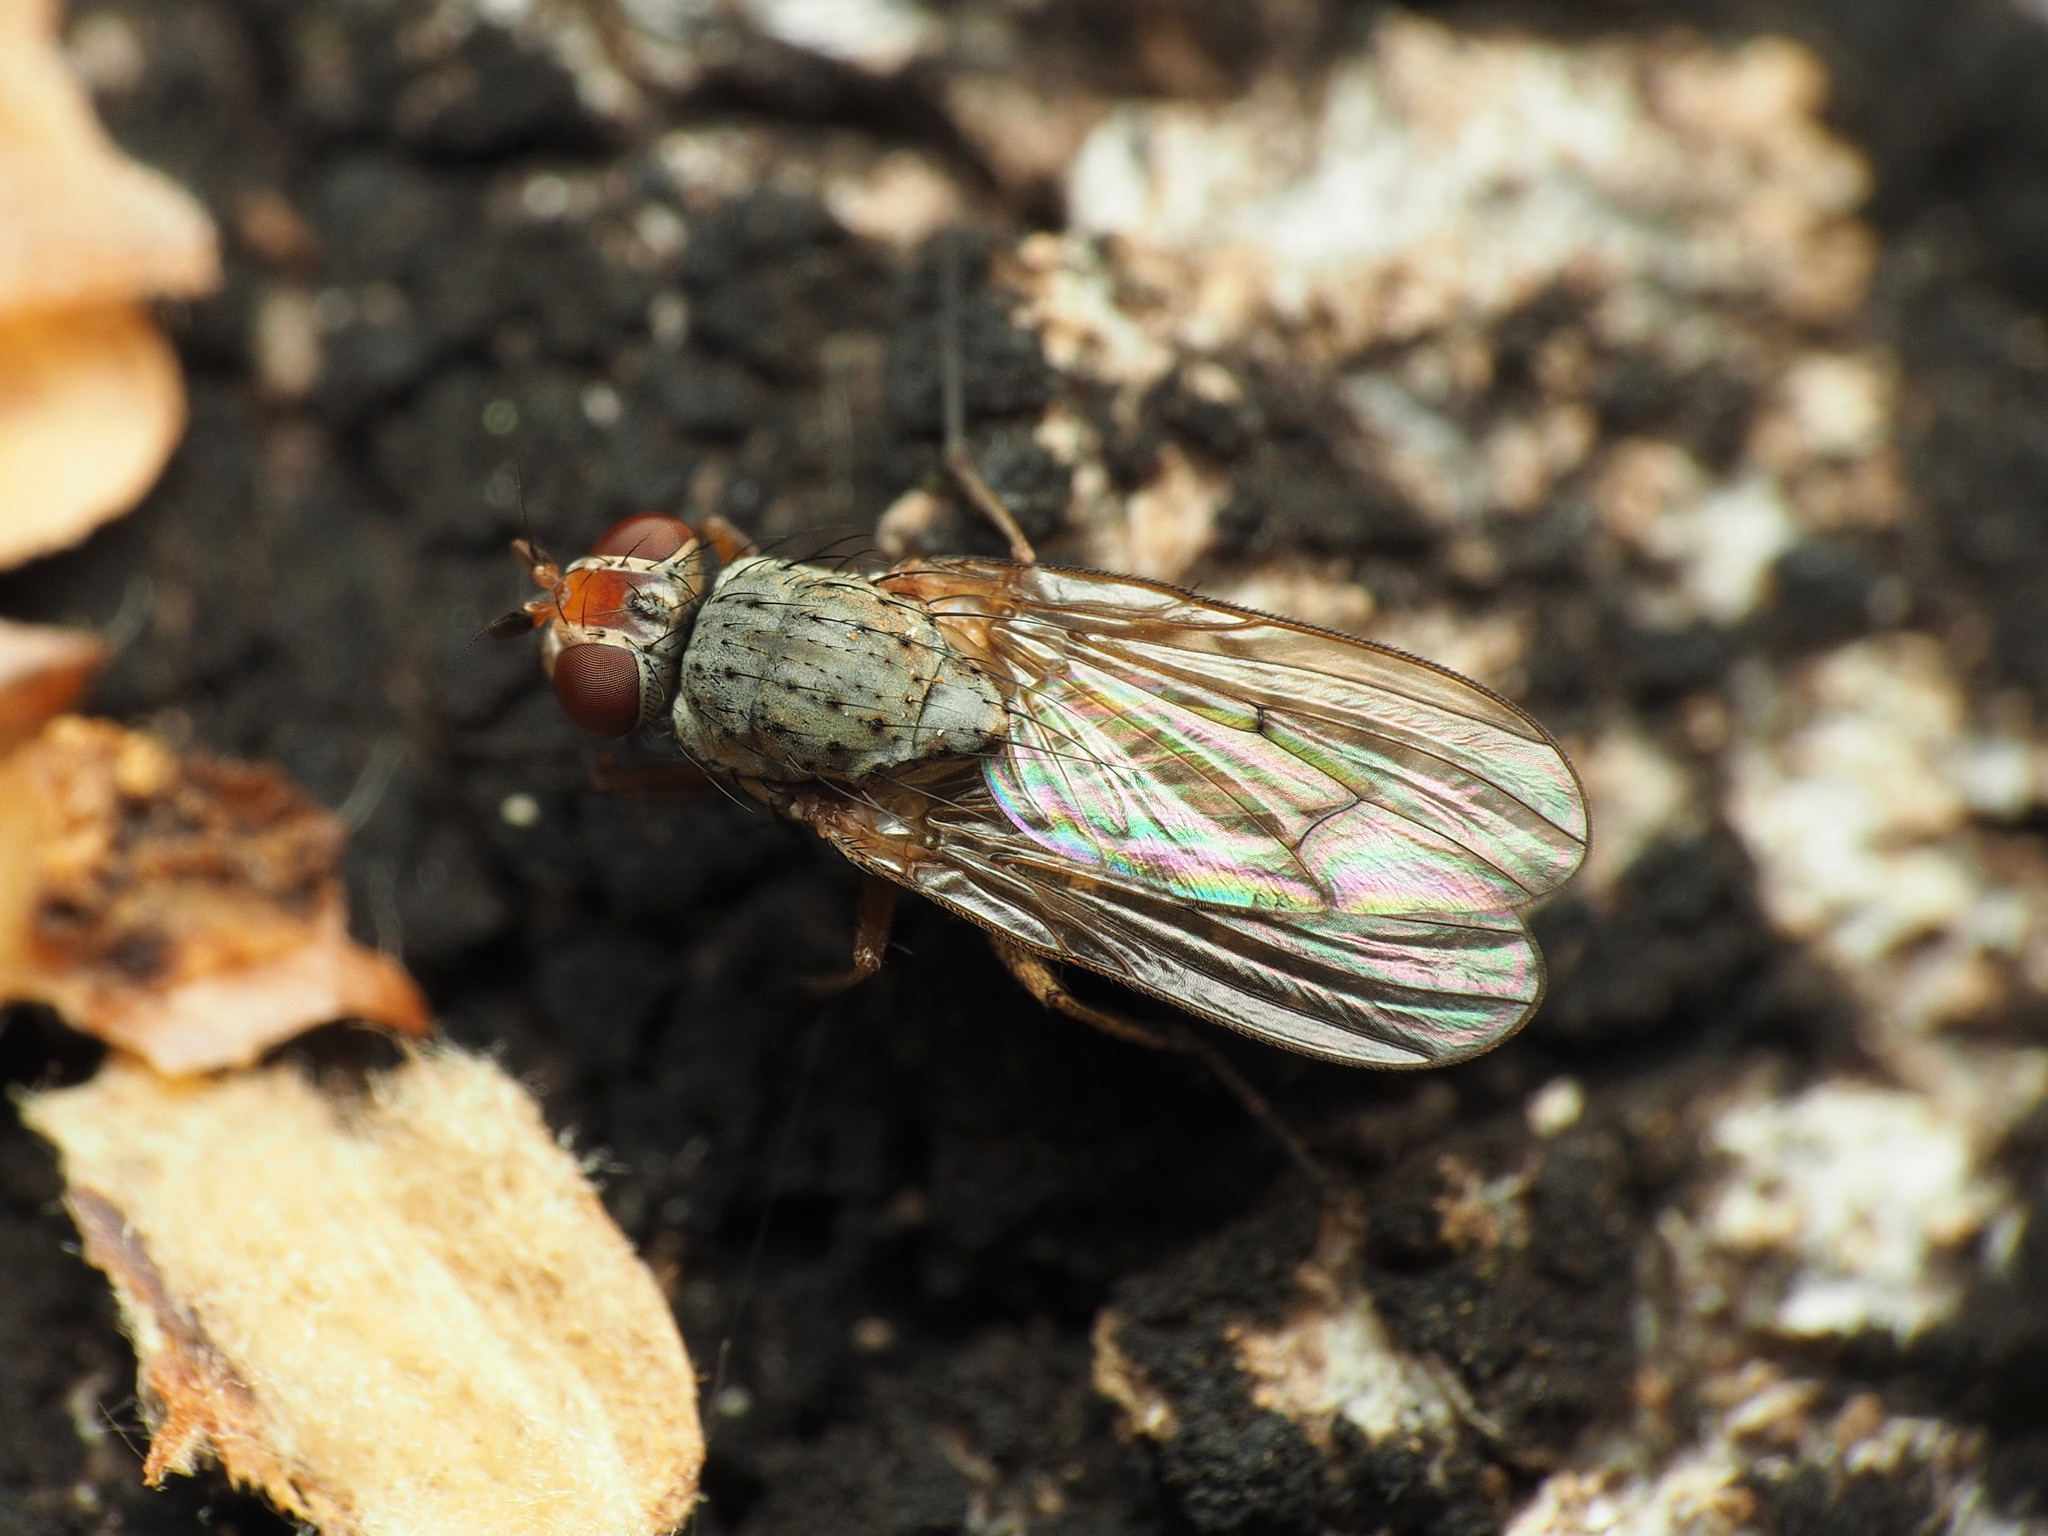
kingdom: Animalia
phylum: Arthropoda
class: Insecta
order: Diptera
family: Anthomyiidae
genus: Eutrichota
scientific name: Eutrichota affinis
